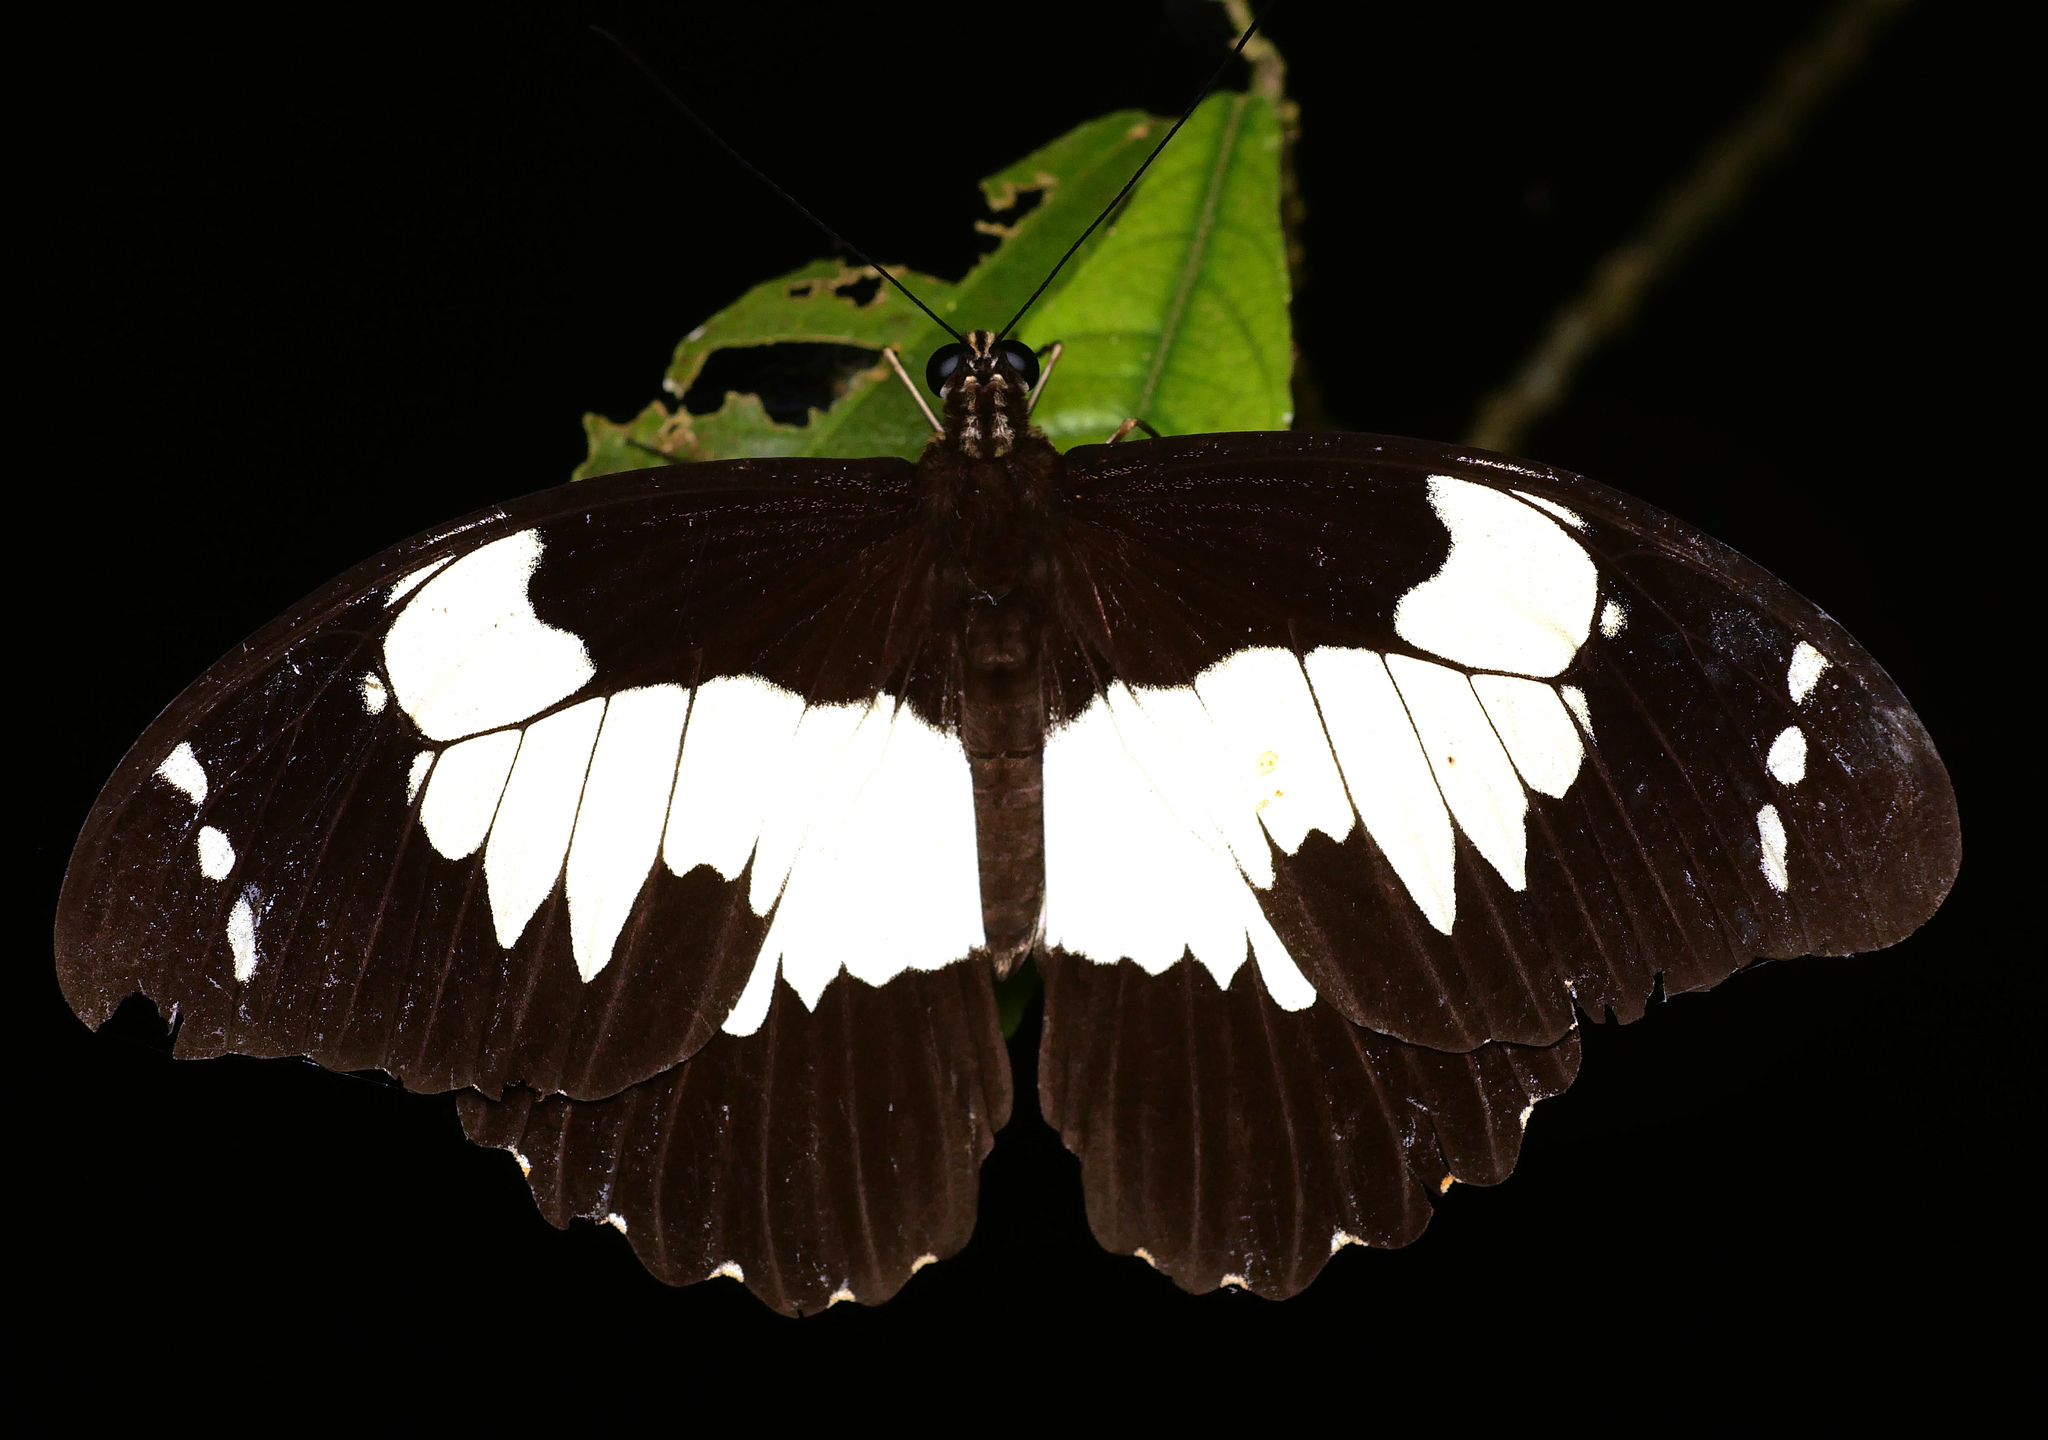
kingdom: Animalia
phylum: Arthropoda
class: Insecta
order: Lepidoptera
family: Papilionidae
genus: Papilio
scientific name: Papilio euchenor
